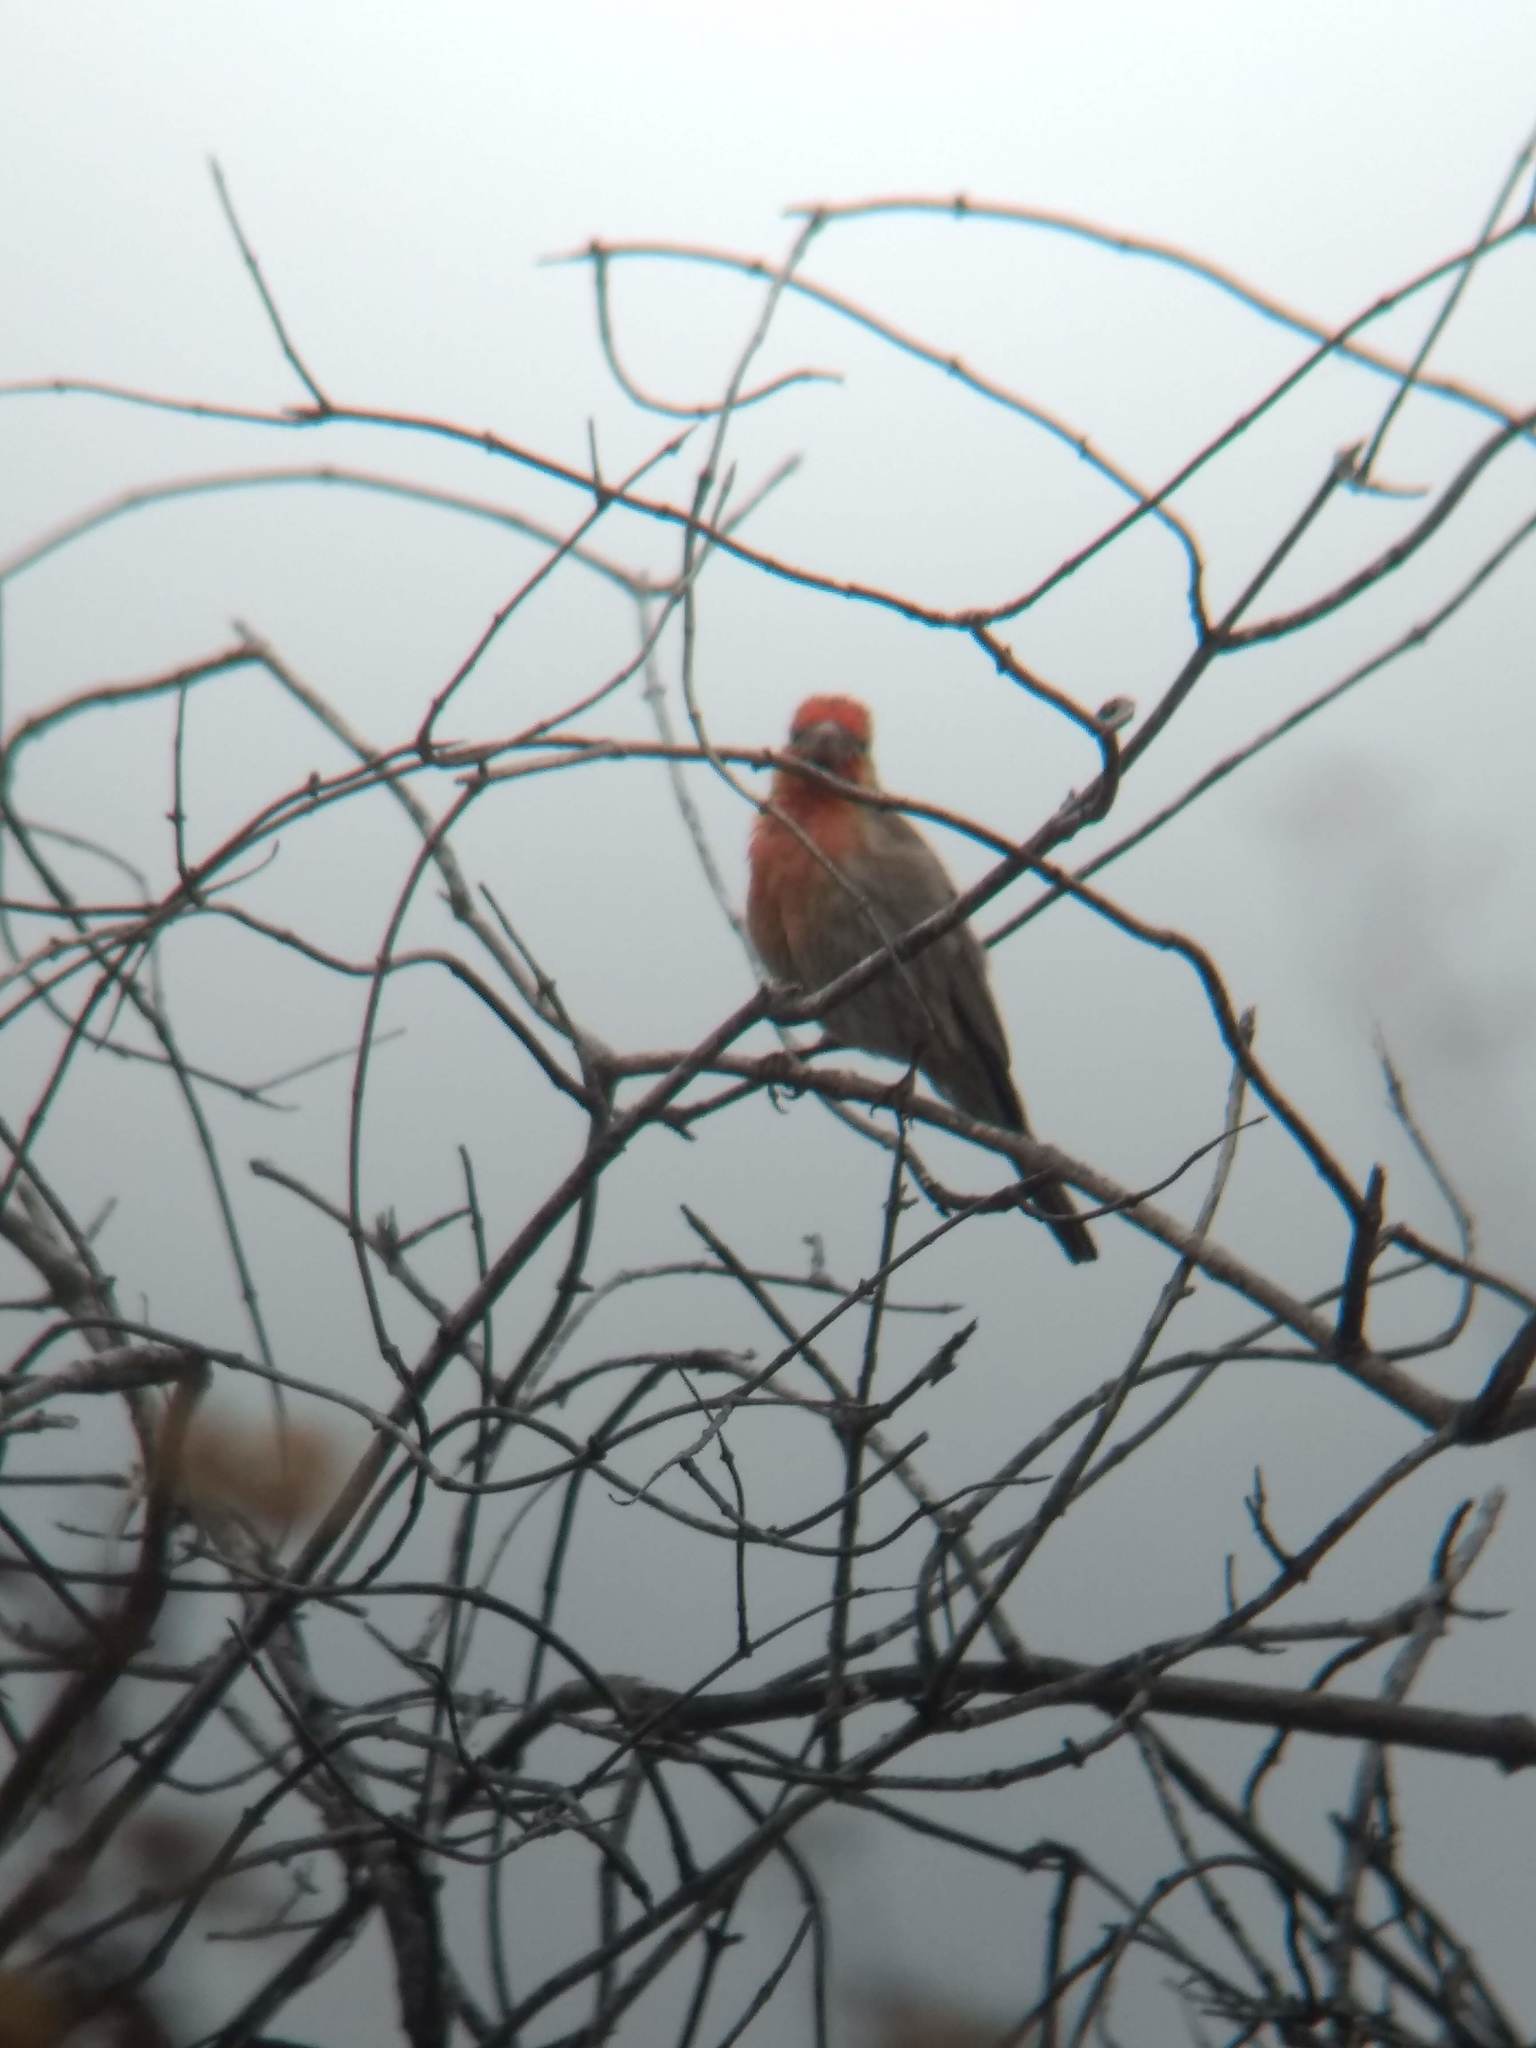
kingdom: Animalia
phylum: Chordata
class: Aves
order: Passeriformes
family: Fringillidae
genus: Haemorhous
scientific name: Haemorhous mexicanus
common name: House finch
